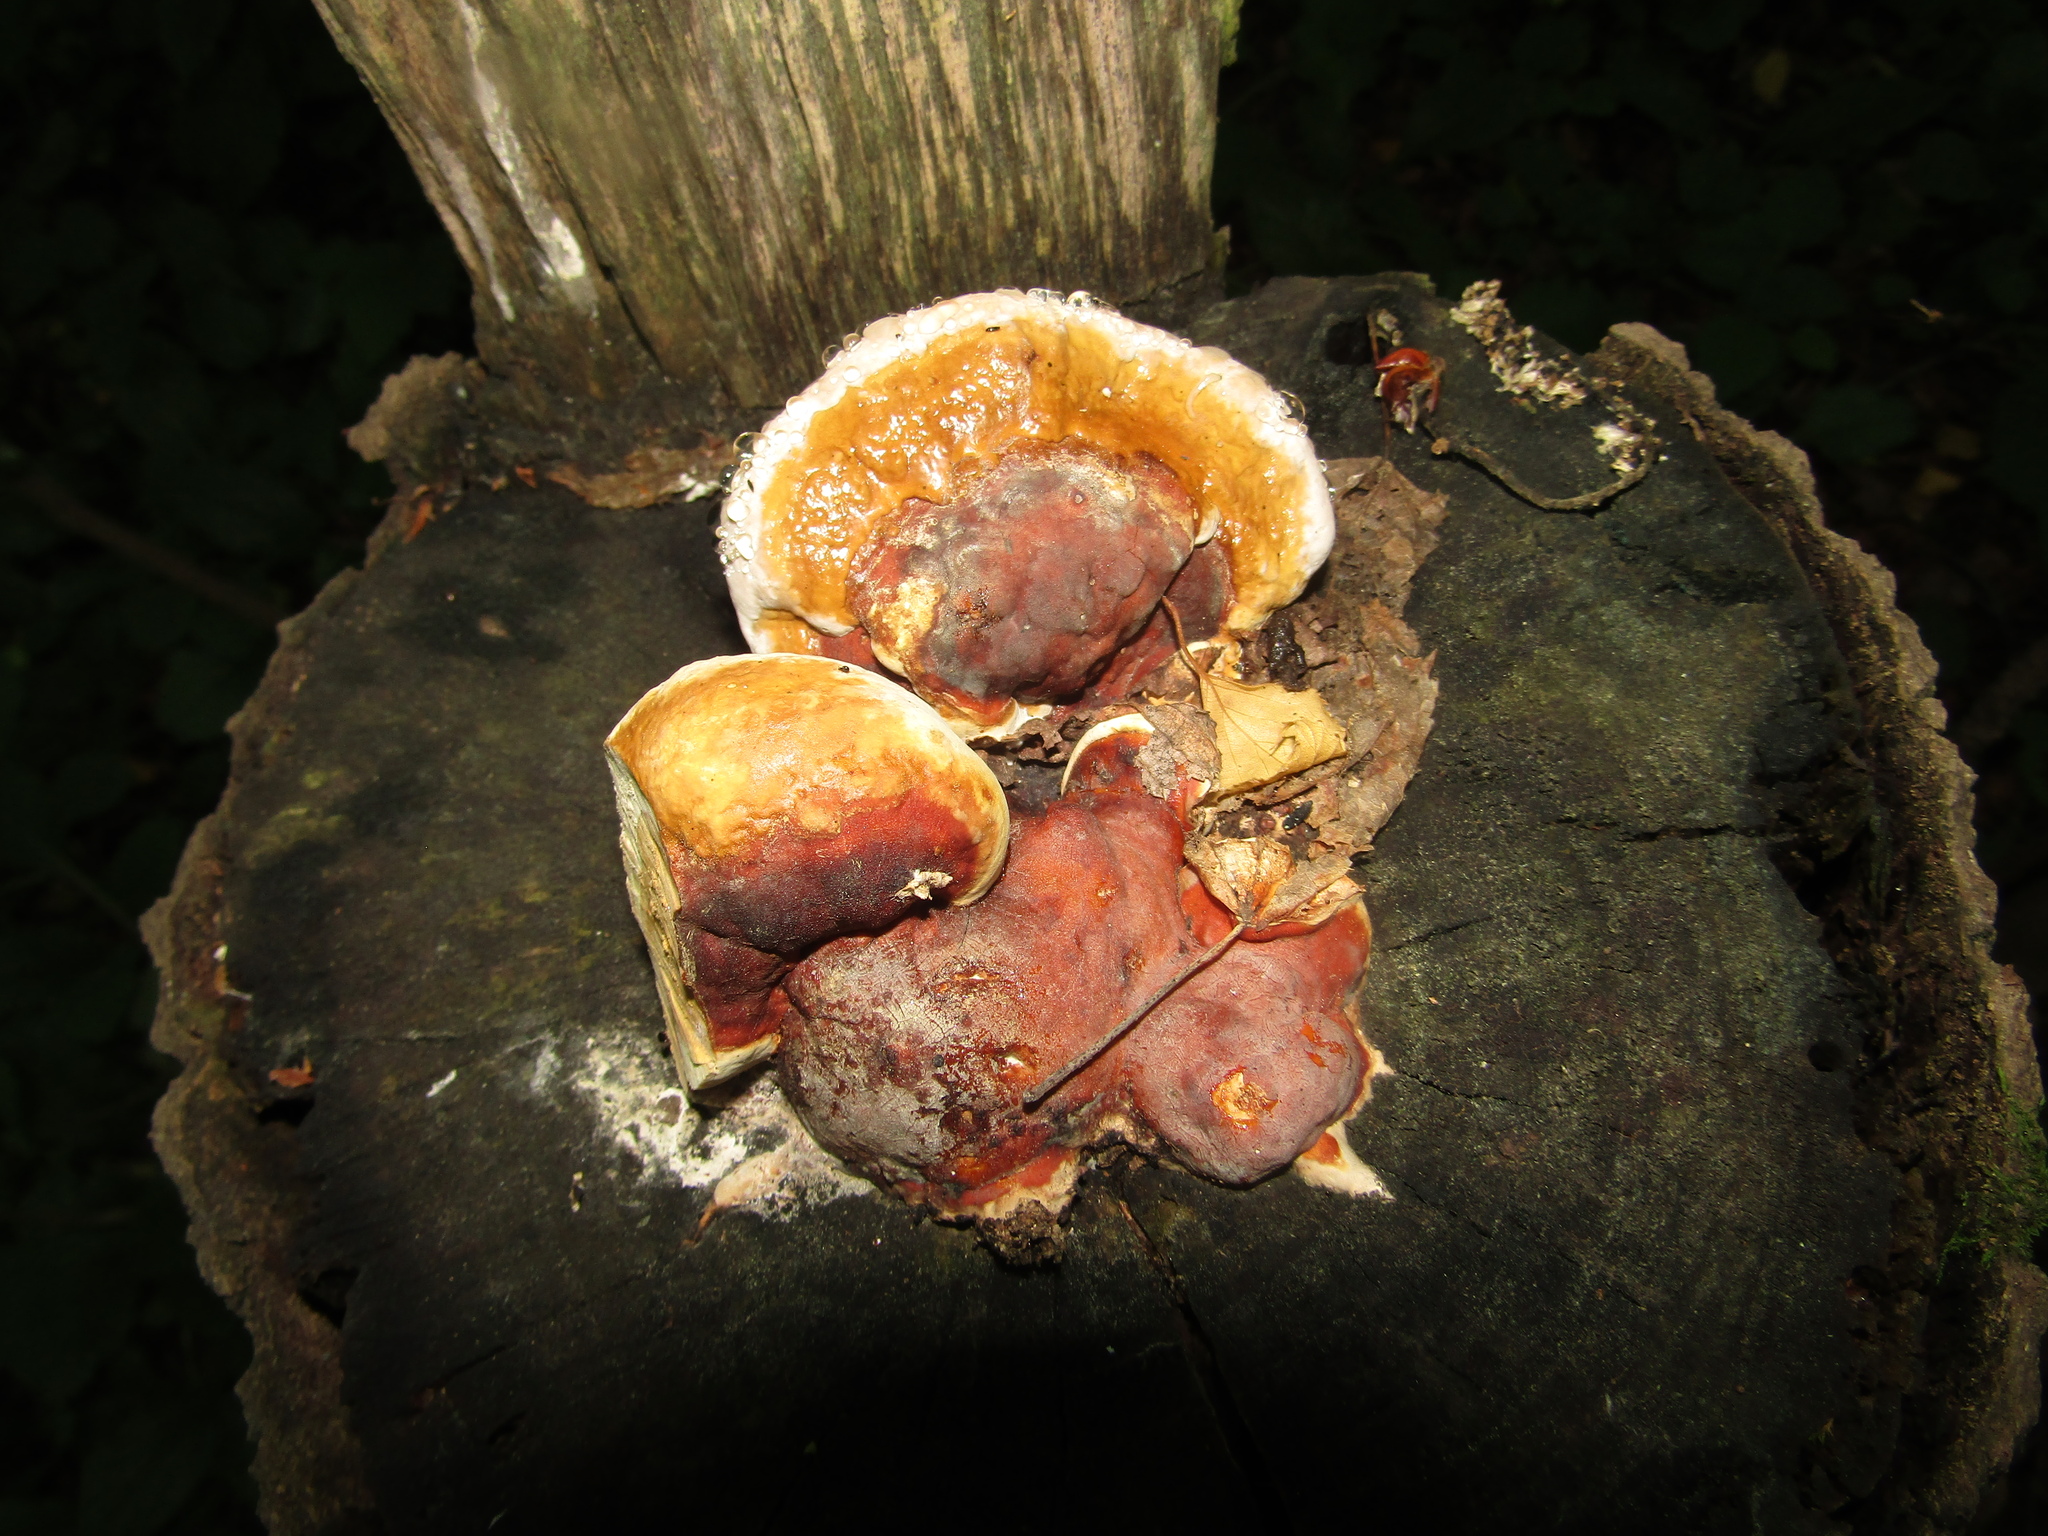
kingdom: Fungi
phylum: Basidiomycota
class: Agaricomycetes
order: Polyporales
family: Fomitopsidaceae
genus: Fomitopsis
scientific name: Fomitopsis pinicola
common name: Red-belted bracket
